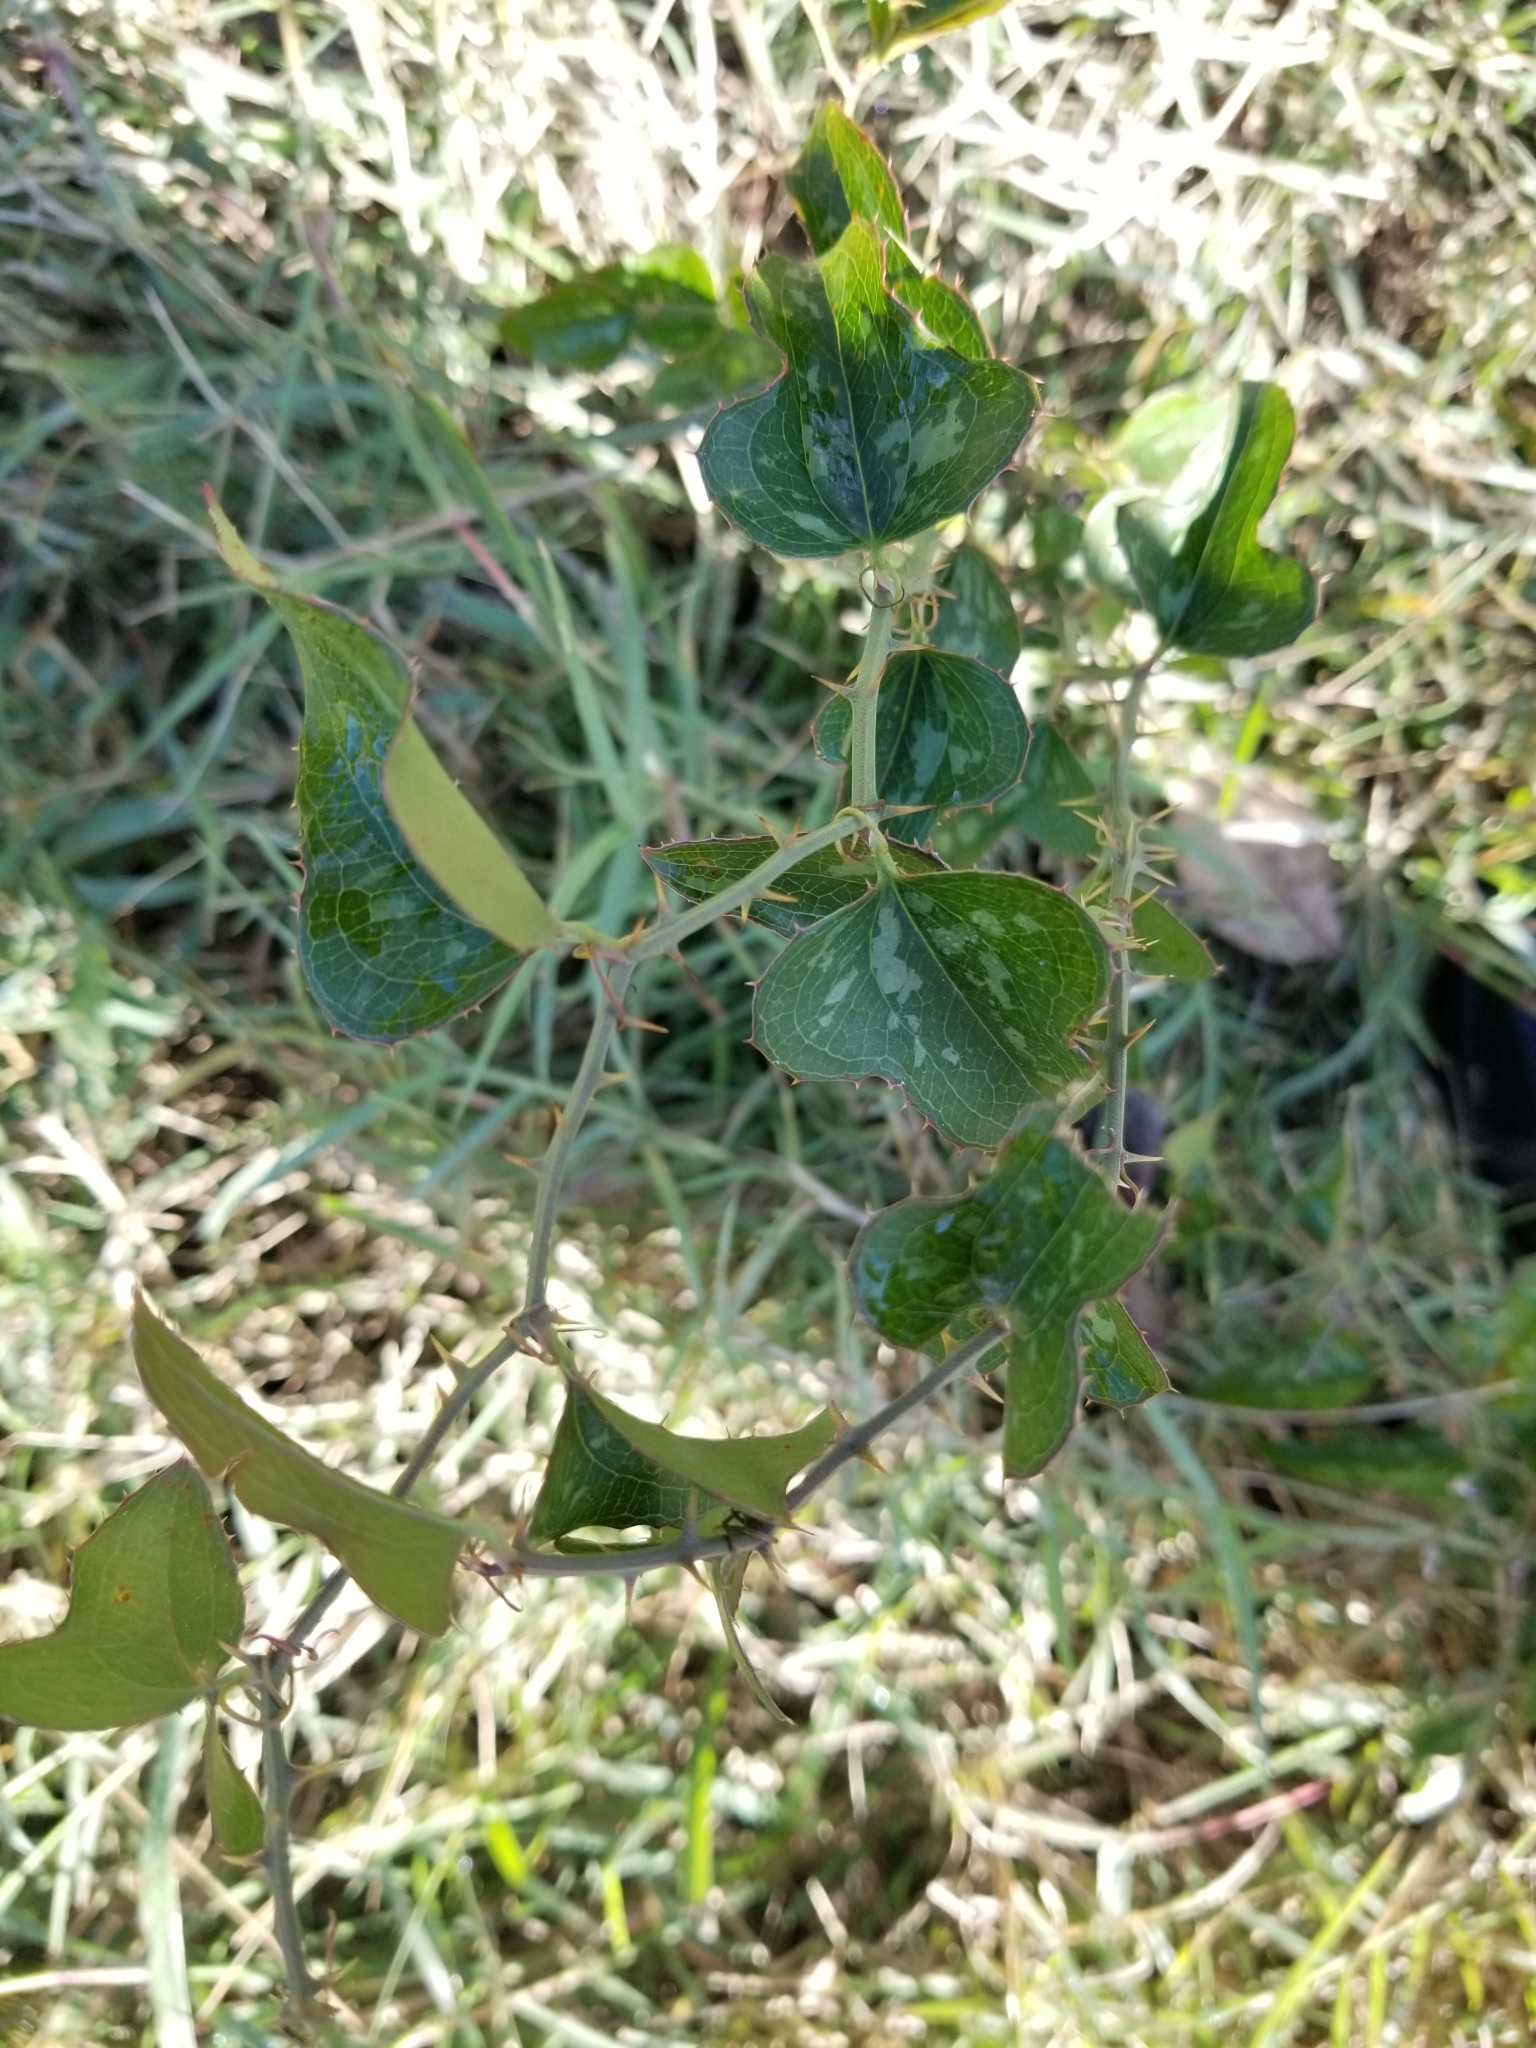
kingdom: Plantae
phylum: Tracheophyta
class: Liliopsida
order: Liliales
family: Smilacaceae
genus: Smilax
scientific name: Smilax bona-nox
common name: Catbrier
